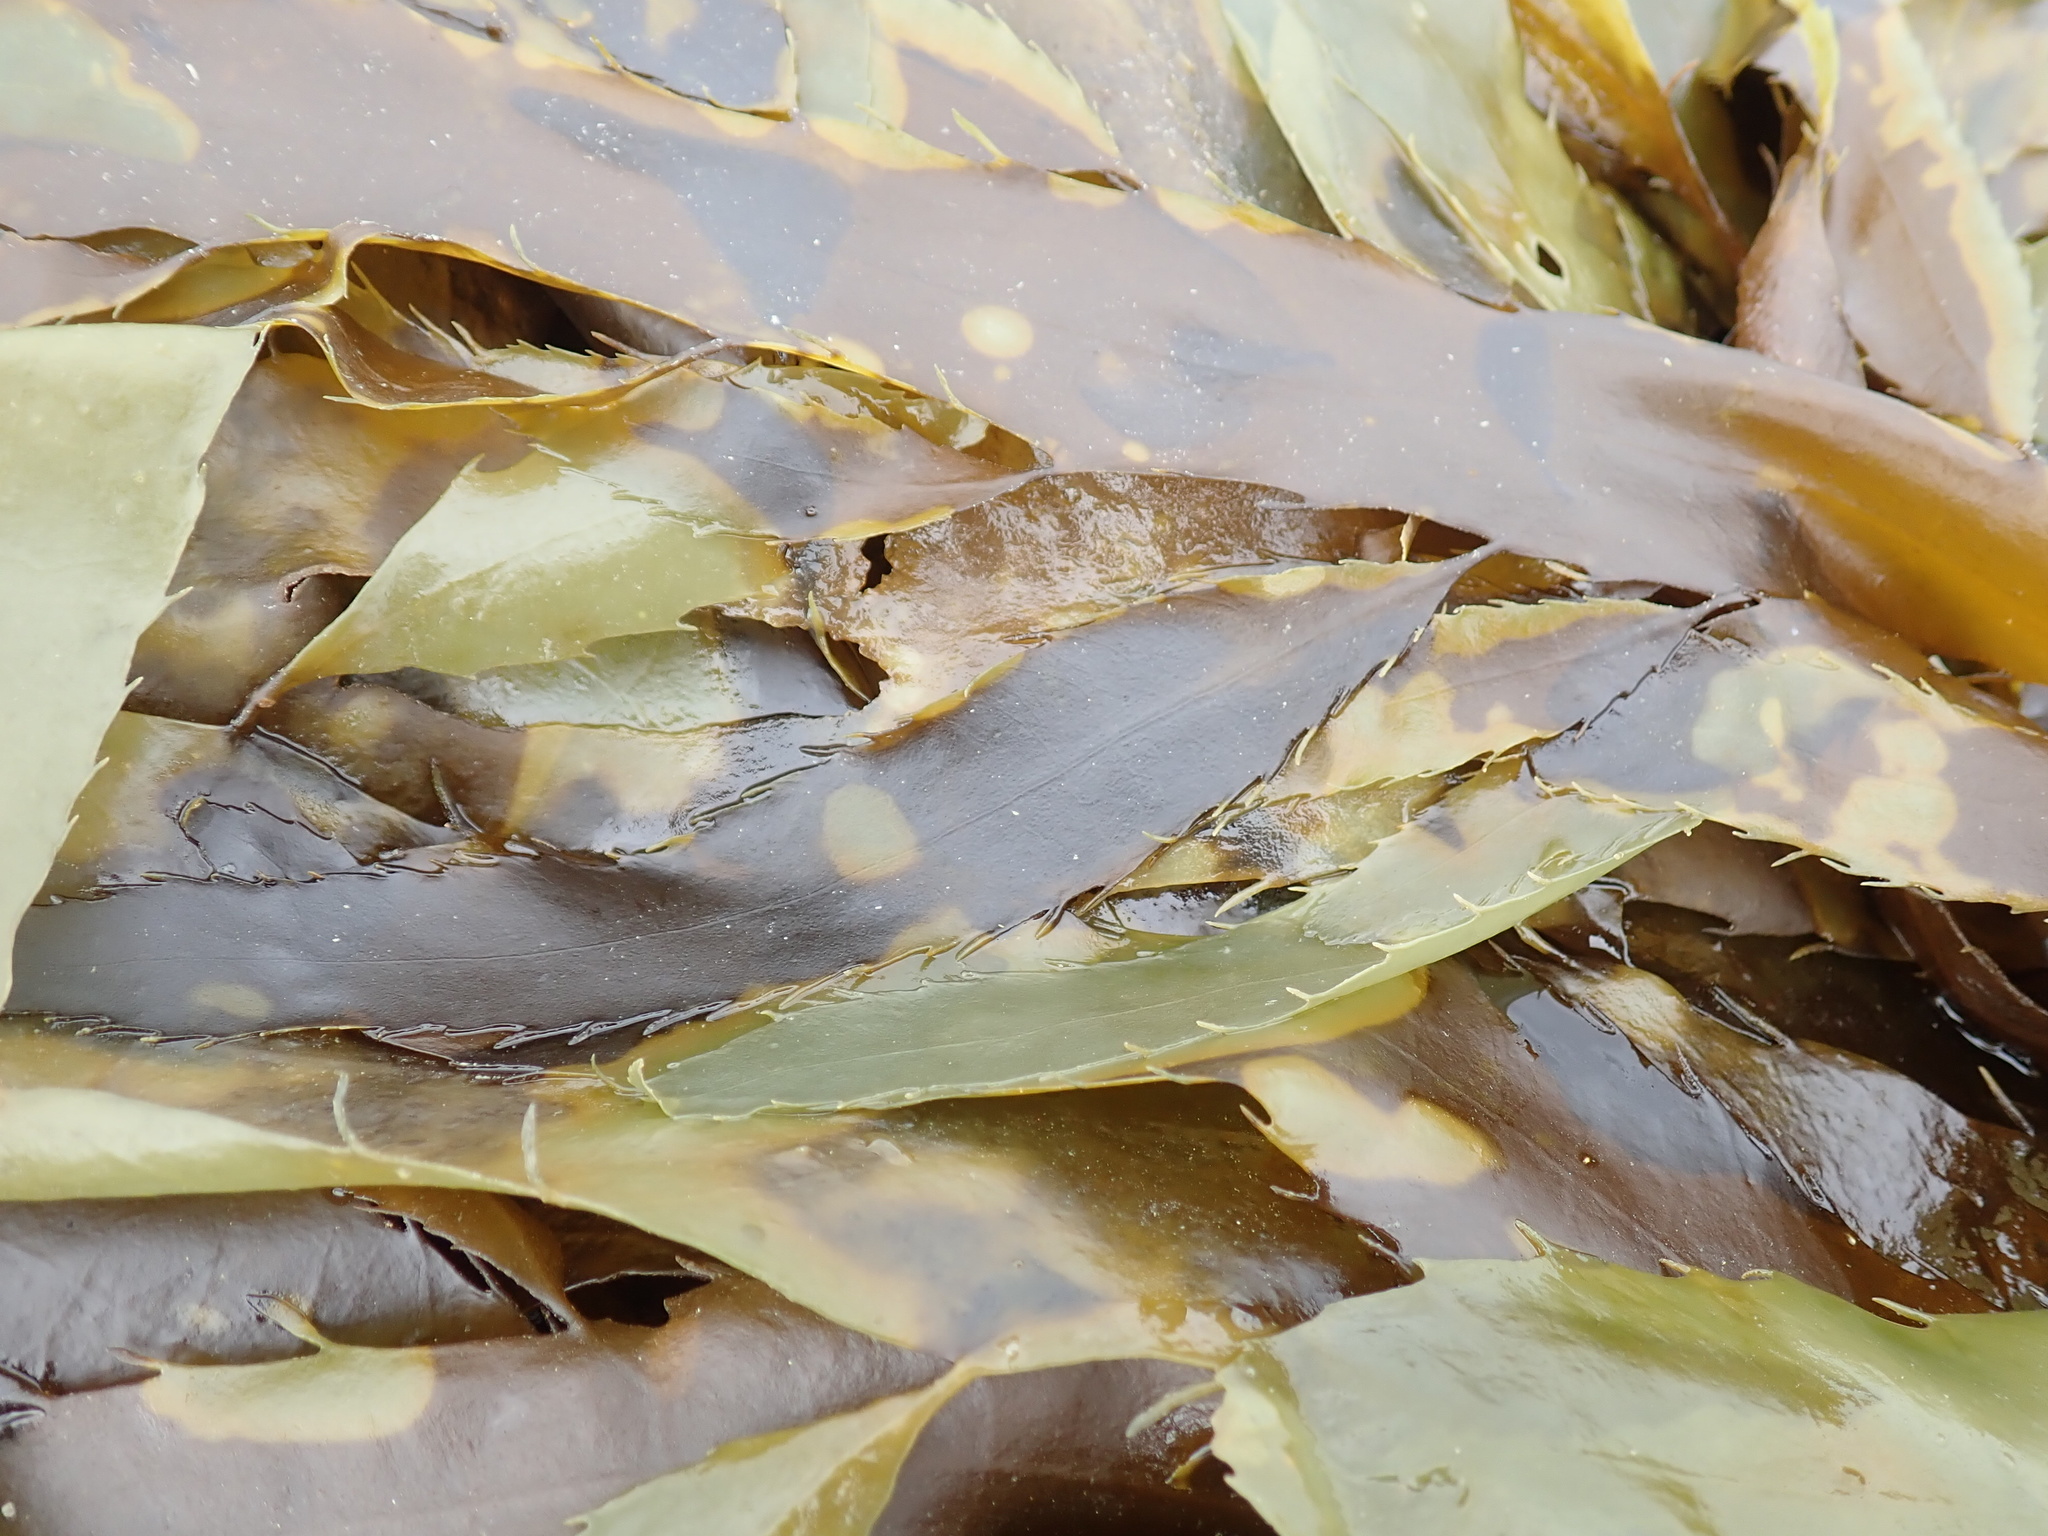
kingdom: Chromista
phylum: Ochrophyta
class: Phaeophyceae
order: Desmarestiales
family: Desmarestiaceae
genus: Desmarestia
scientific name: Desmarestia ligulata
